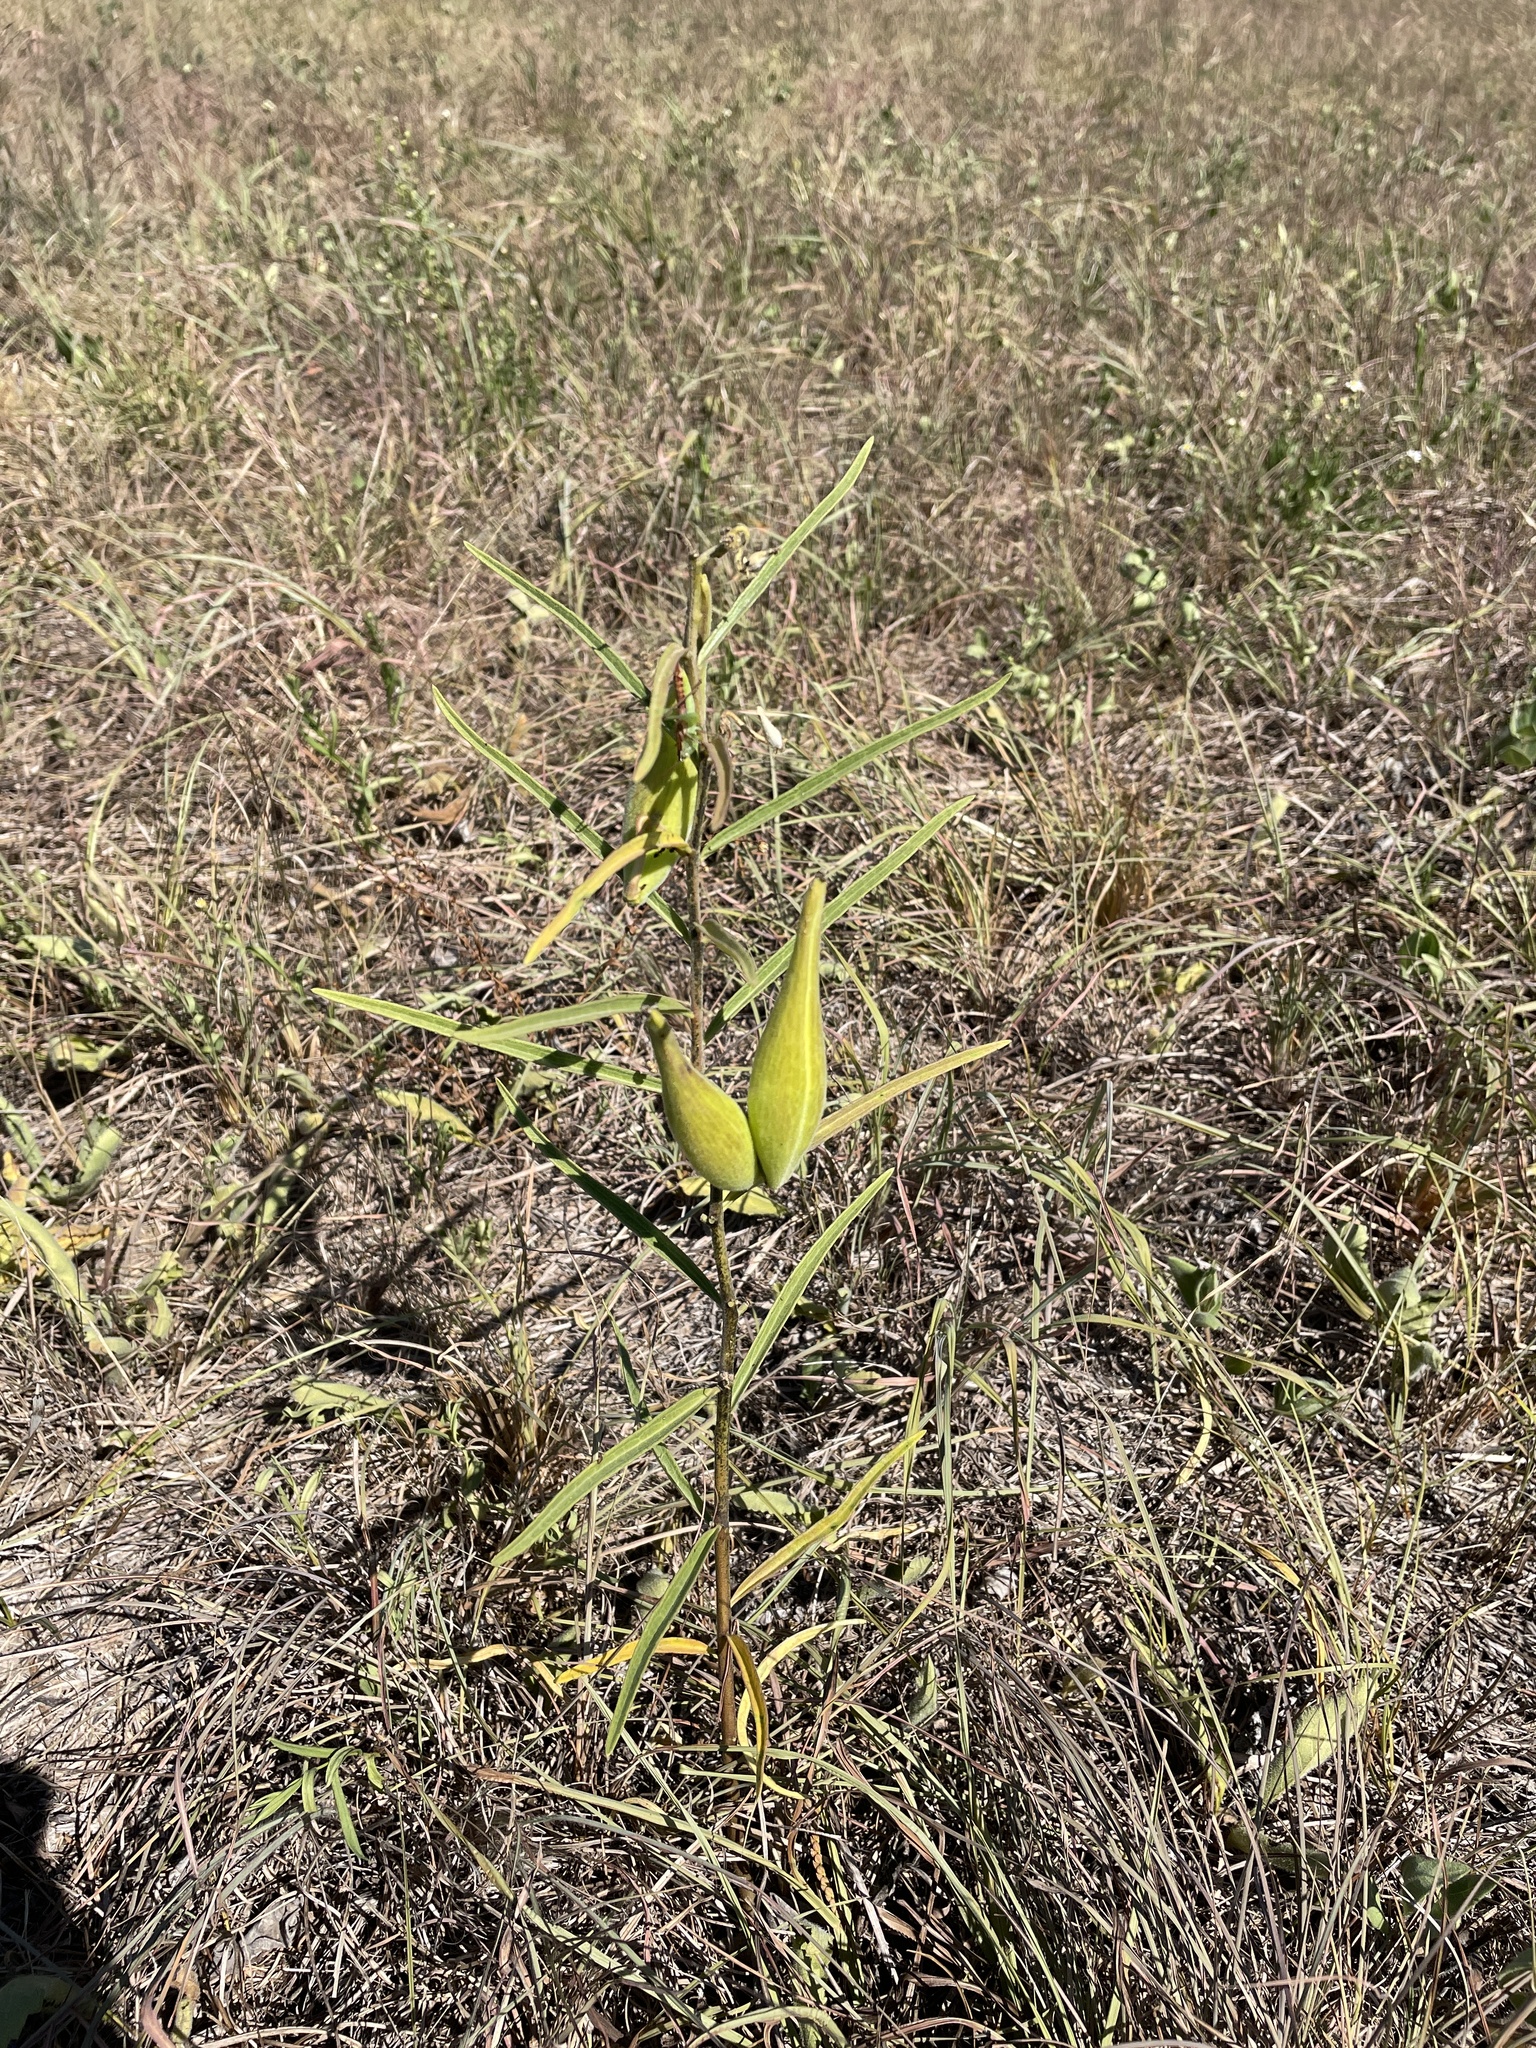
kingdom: Plantae
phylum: Tracheophyta
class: Magnoliopsida
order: Gentianales
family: Apocynaceae
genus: Asclepias
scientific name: Asclepias hirtella
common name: Prairie milkweed
